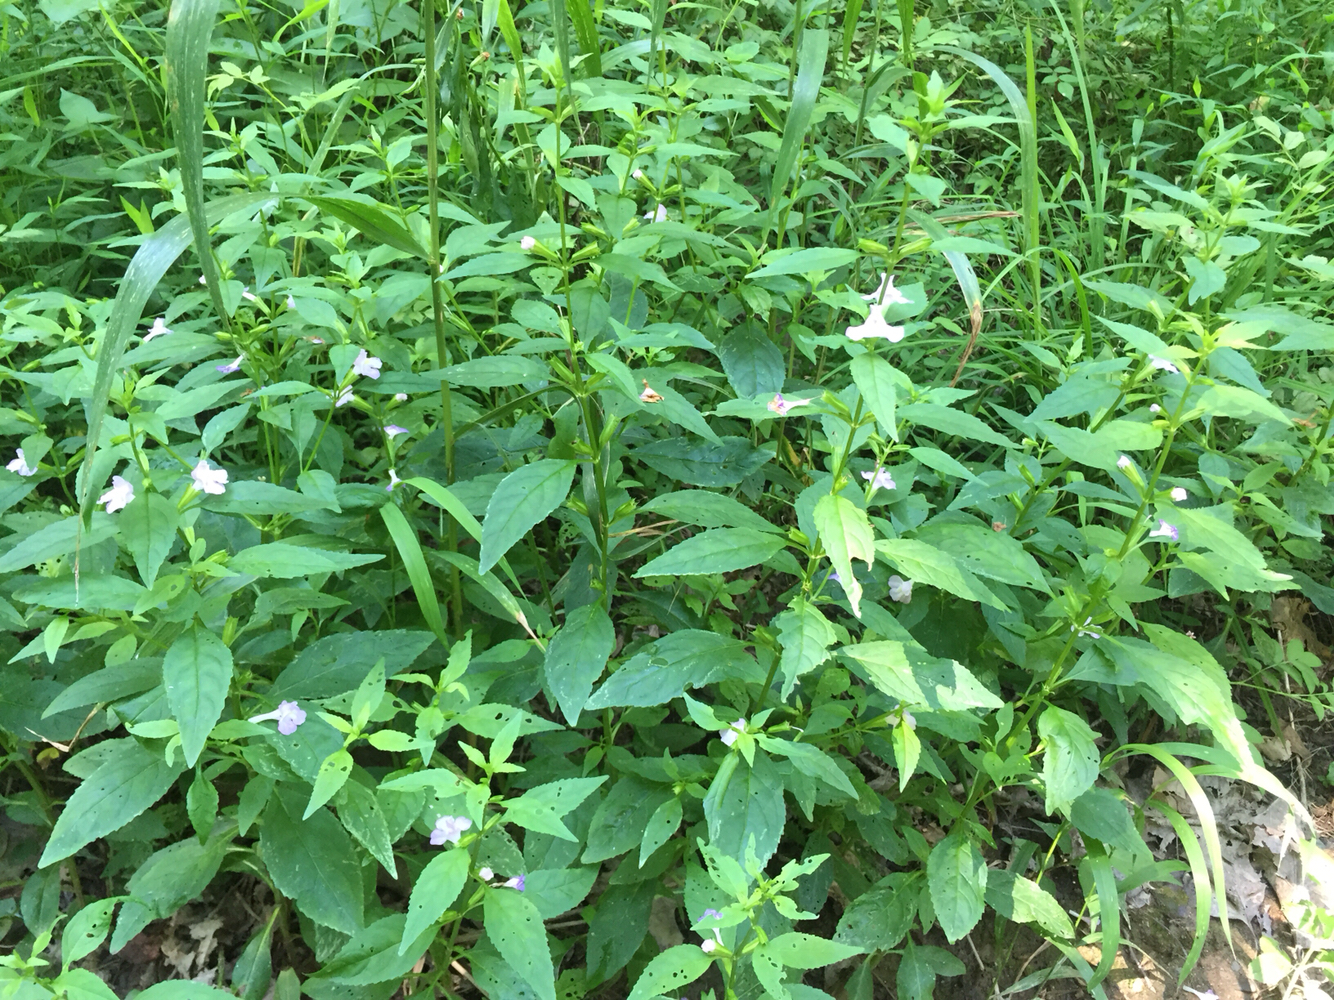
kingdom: Plantae
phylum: Tracheophyta
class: Magnoliopsida
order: Lamiales
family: Phrymaceae
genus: Mimulus
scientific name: Mimulus alatus
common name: Sharp-wing monkey-flower
